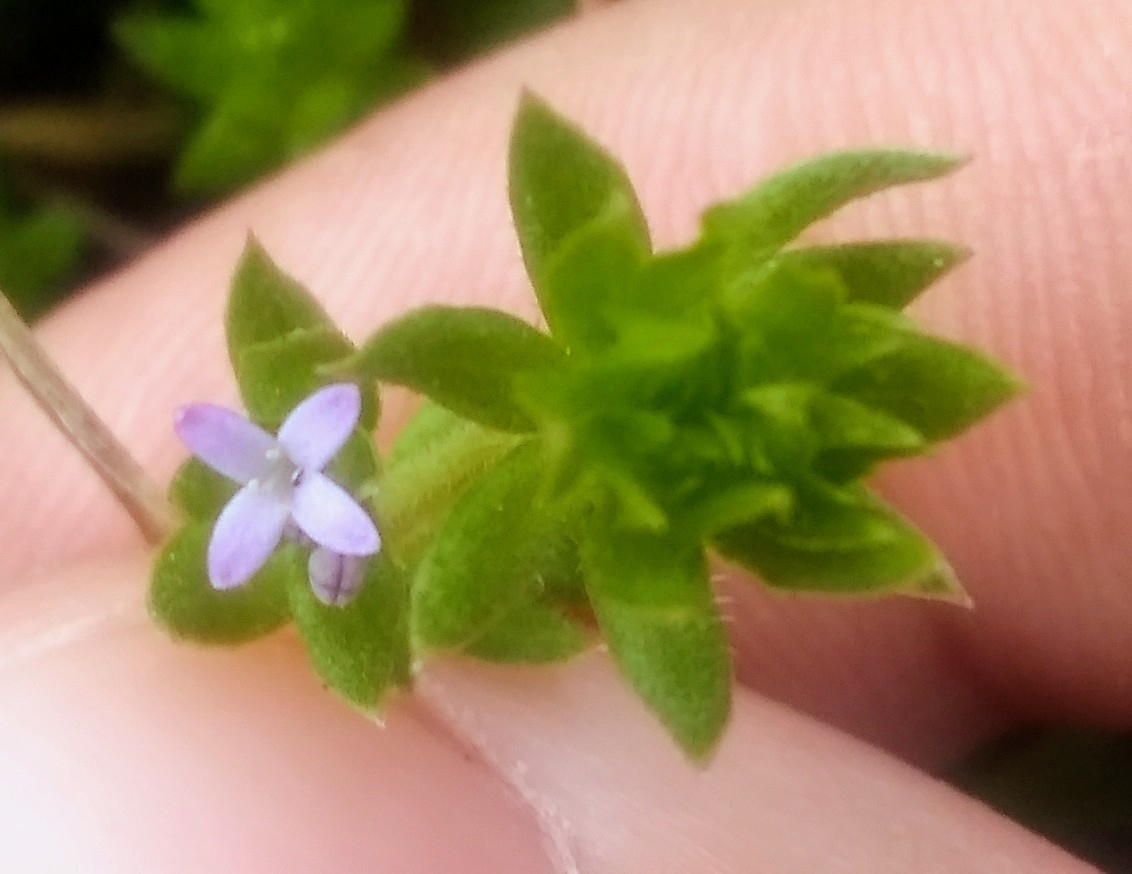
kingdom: Plantae
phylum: Tracheophyta
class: Magnoliopsida
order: Gentianales
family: Rubiaceae
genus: Sherardia
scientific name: Sherardia arvensis
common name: Field madder
